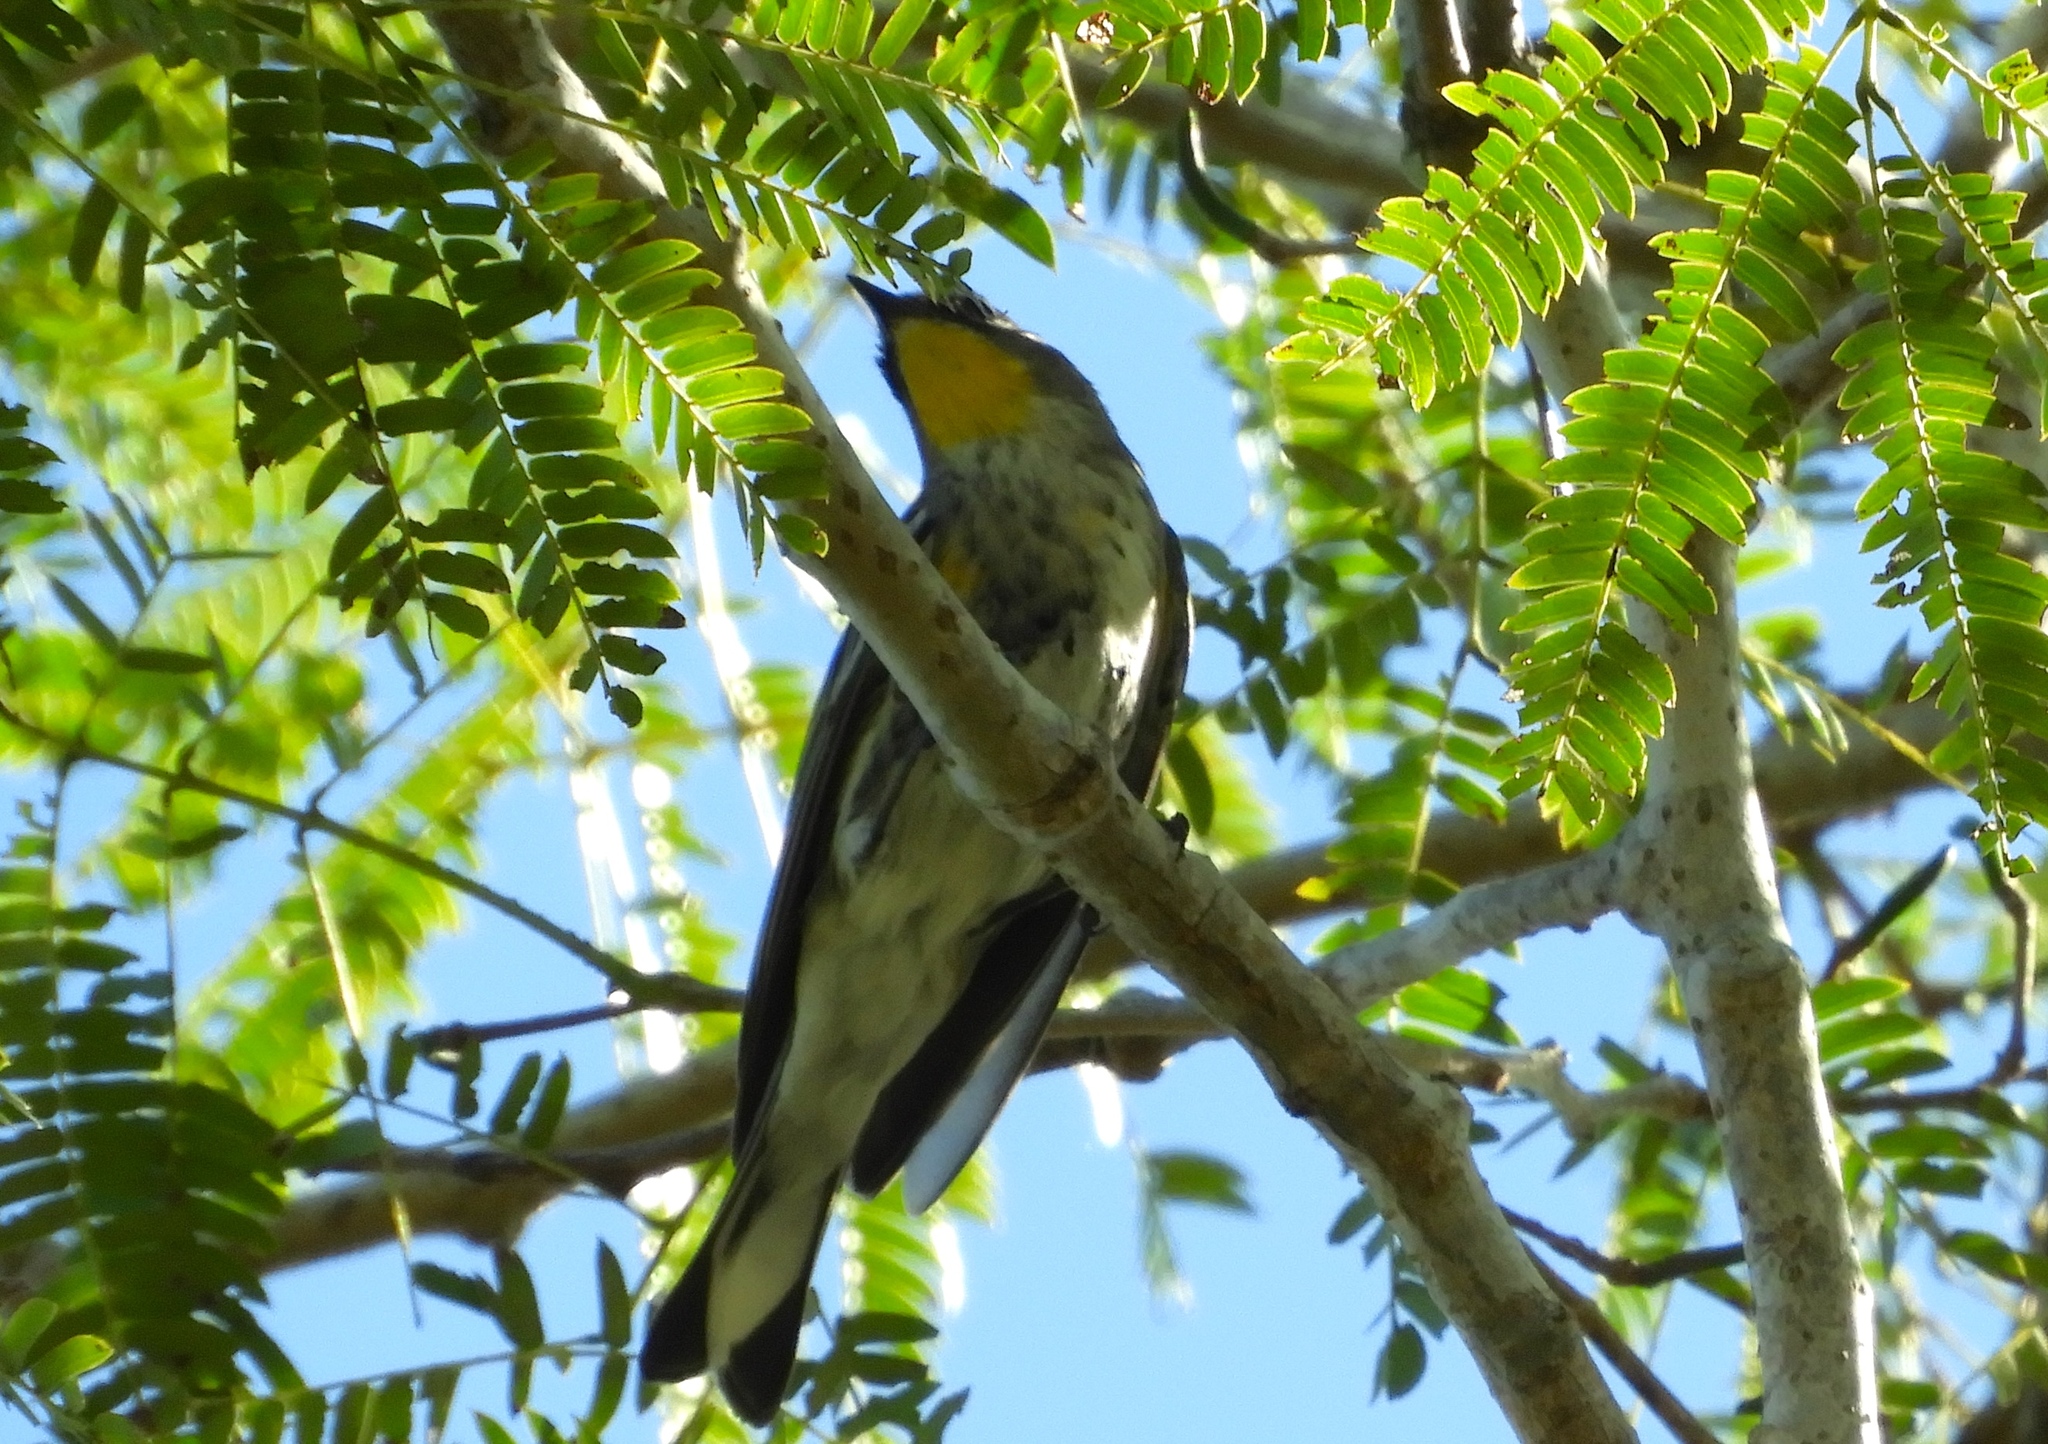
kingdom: Animalia
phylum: Chordata
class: Aves
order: Passeriformes
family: Parulidae
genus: Setophaga
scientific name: Setophaga auduboni
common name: Audubon's warbler
